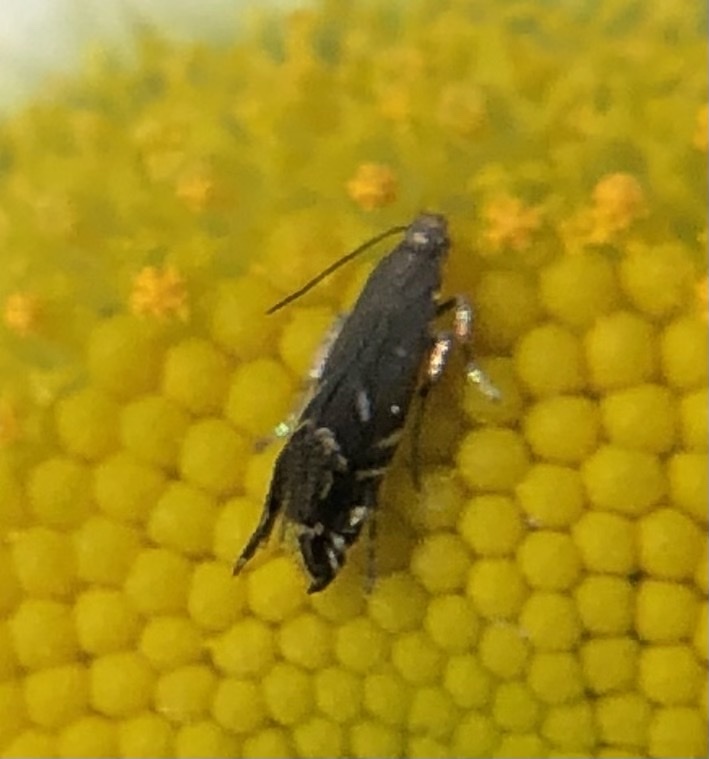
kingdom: Animalia
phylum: Arthropoda
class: Insecta
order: Lepidoptera
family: Glyphipterigidae
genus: Glyphipterix
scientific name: Glyphipterix simpliciella
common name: Cocksfoot moth
